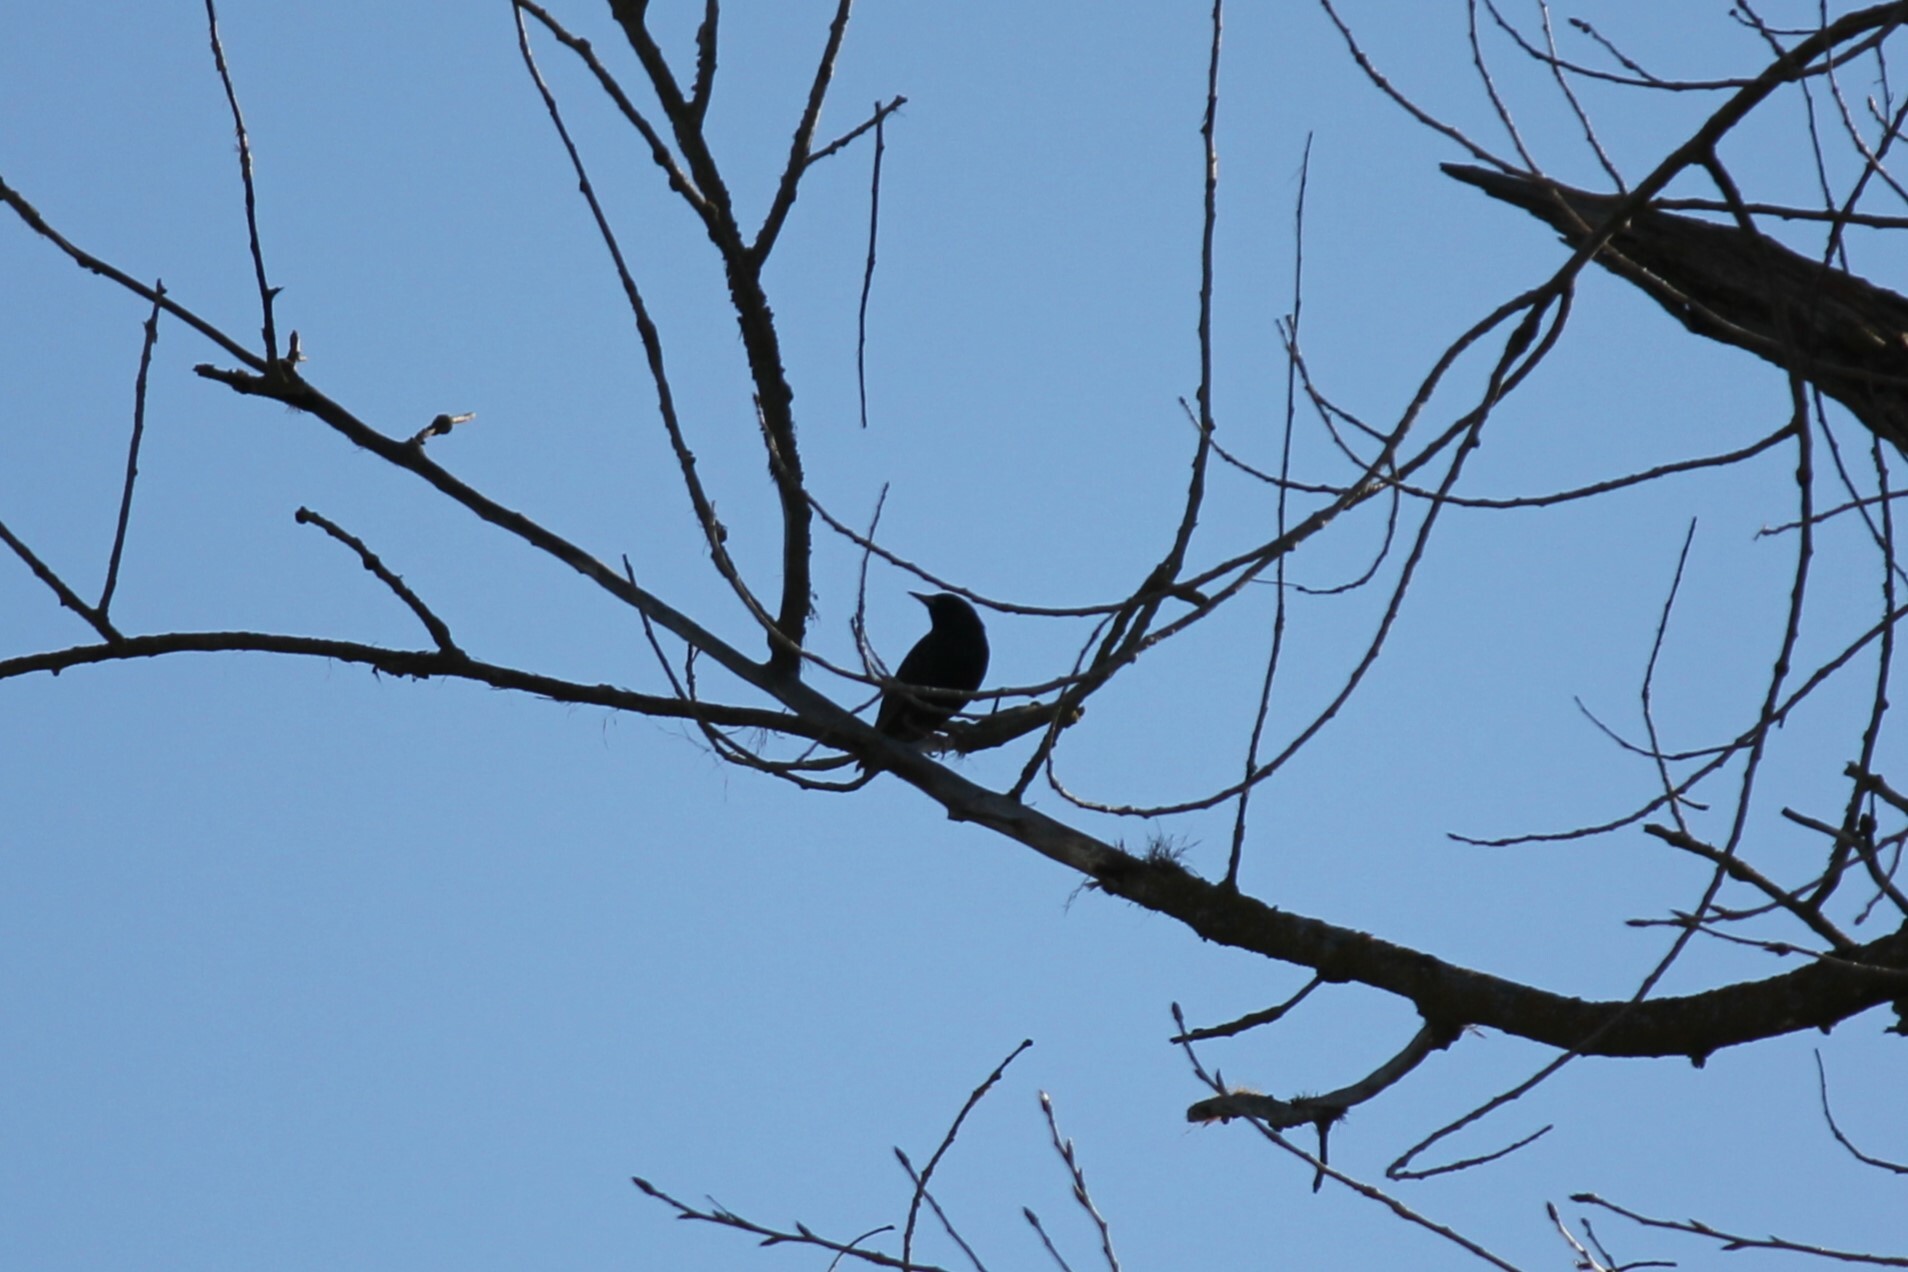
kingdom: Animalia
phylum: Chordata
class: Aves
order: Passeriformes
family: Sturnidae
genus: Sturnus
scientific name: Sturnus vulgaris
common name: Common starling
